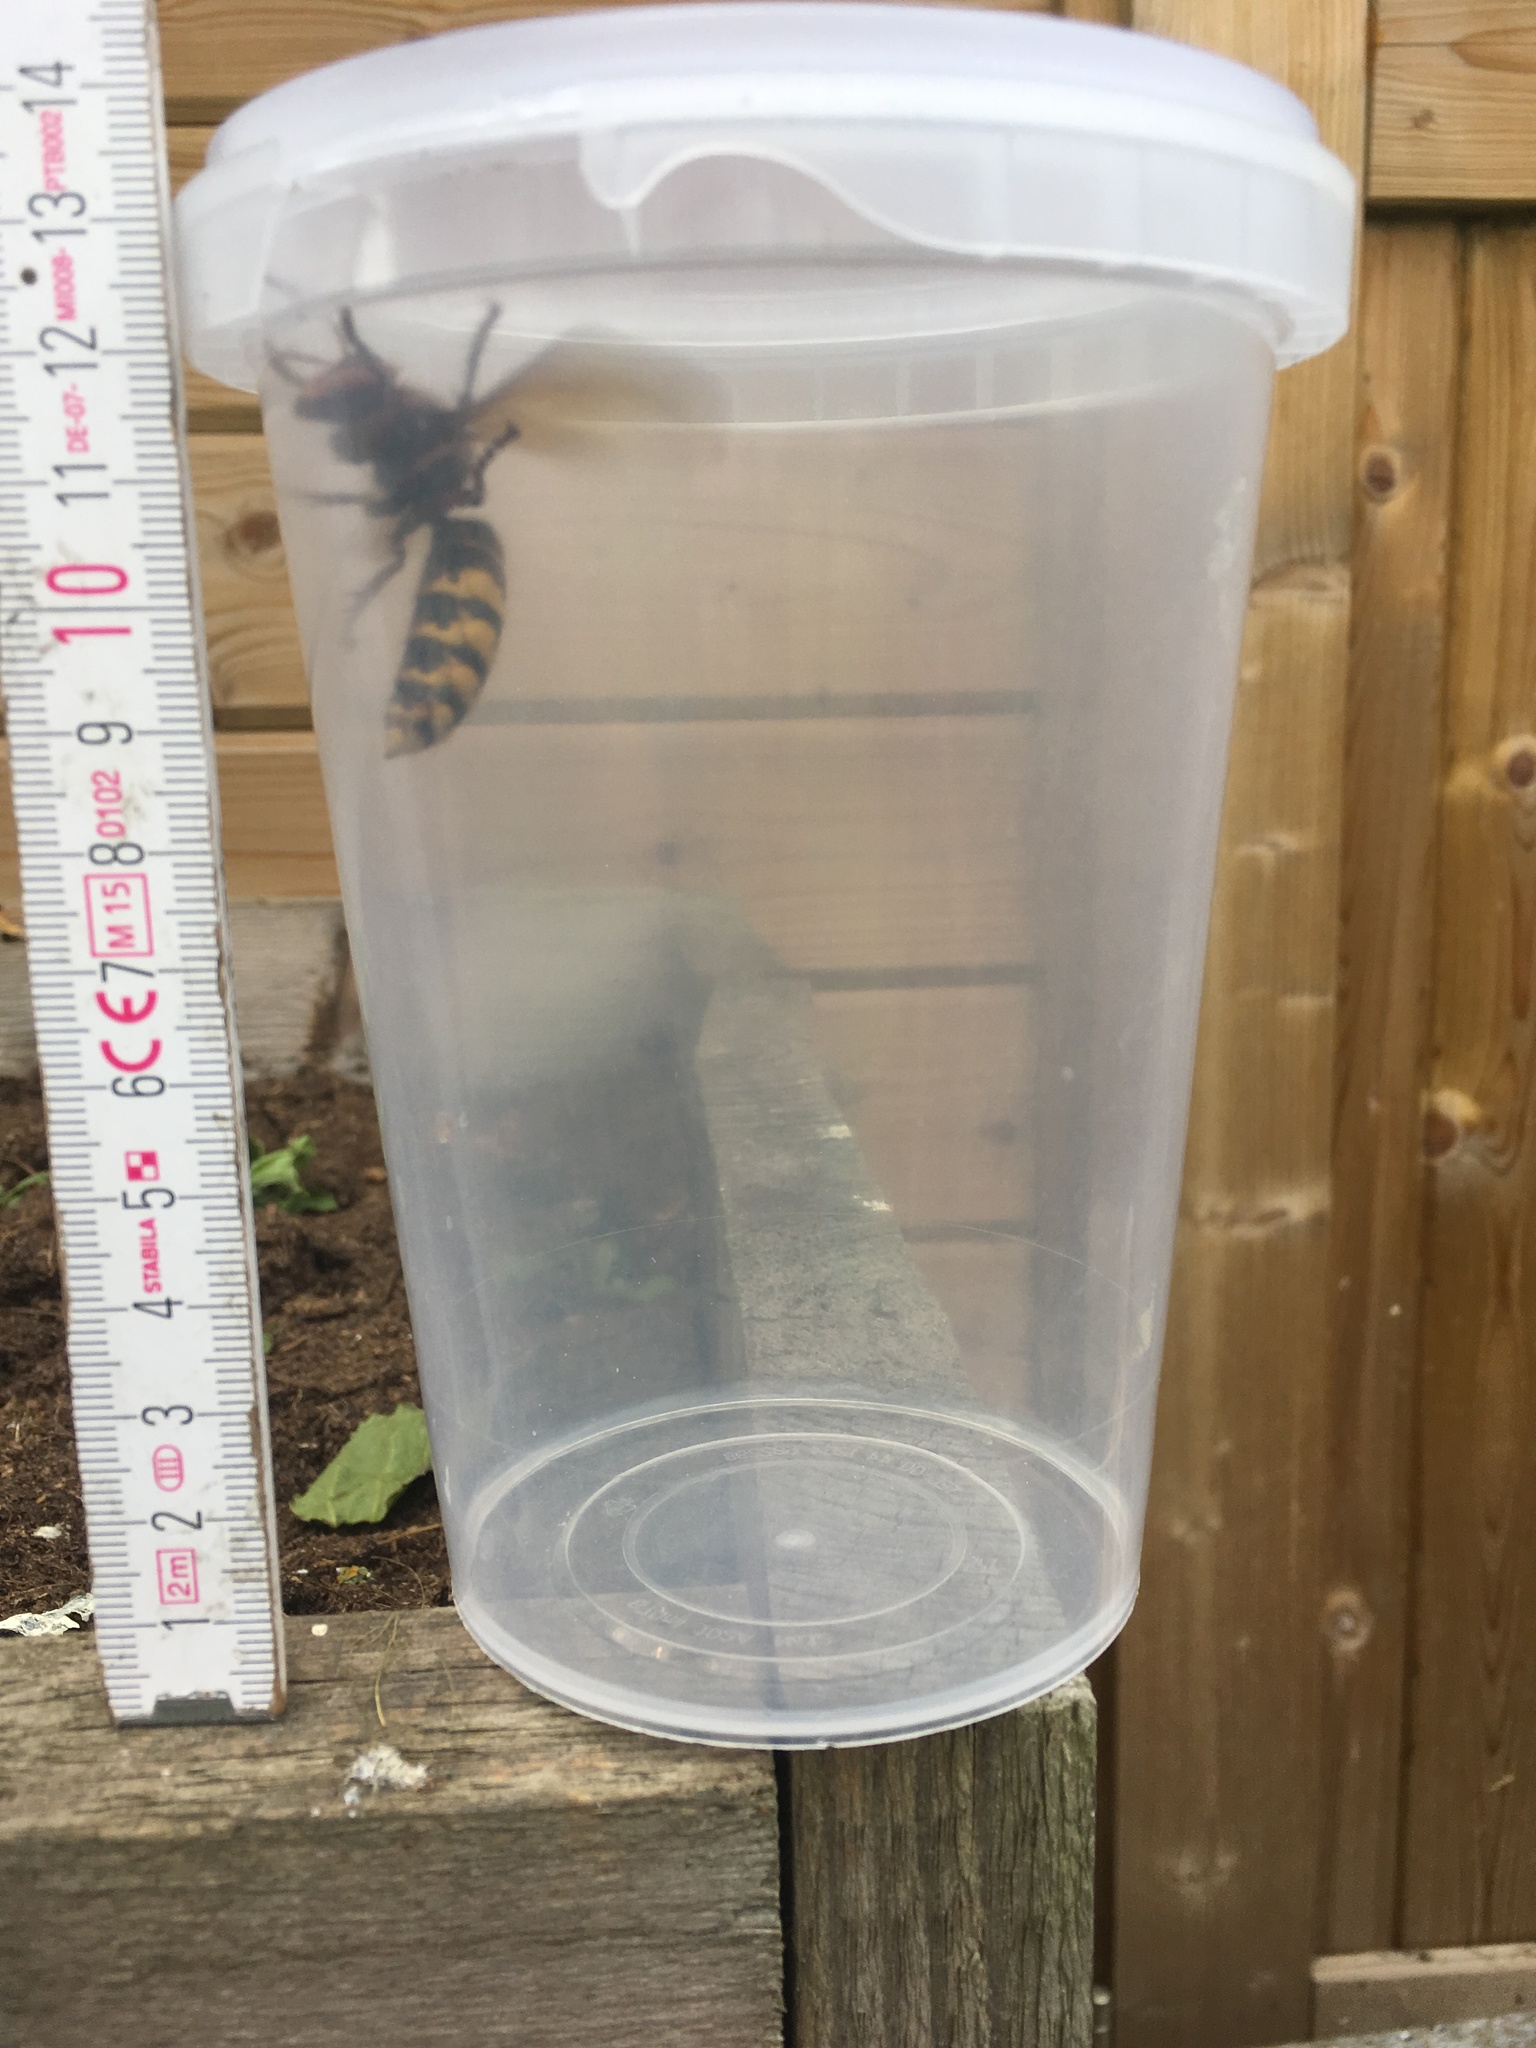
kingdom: Animalia
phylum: Arthropoda
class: Insecta
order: Hymenoptera
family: Vespidae
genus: Vespa
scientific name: Vespa crabro
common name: Hornet
